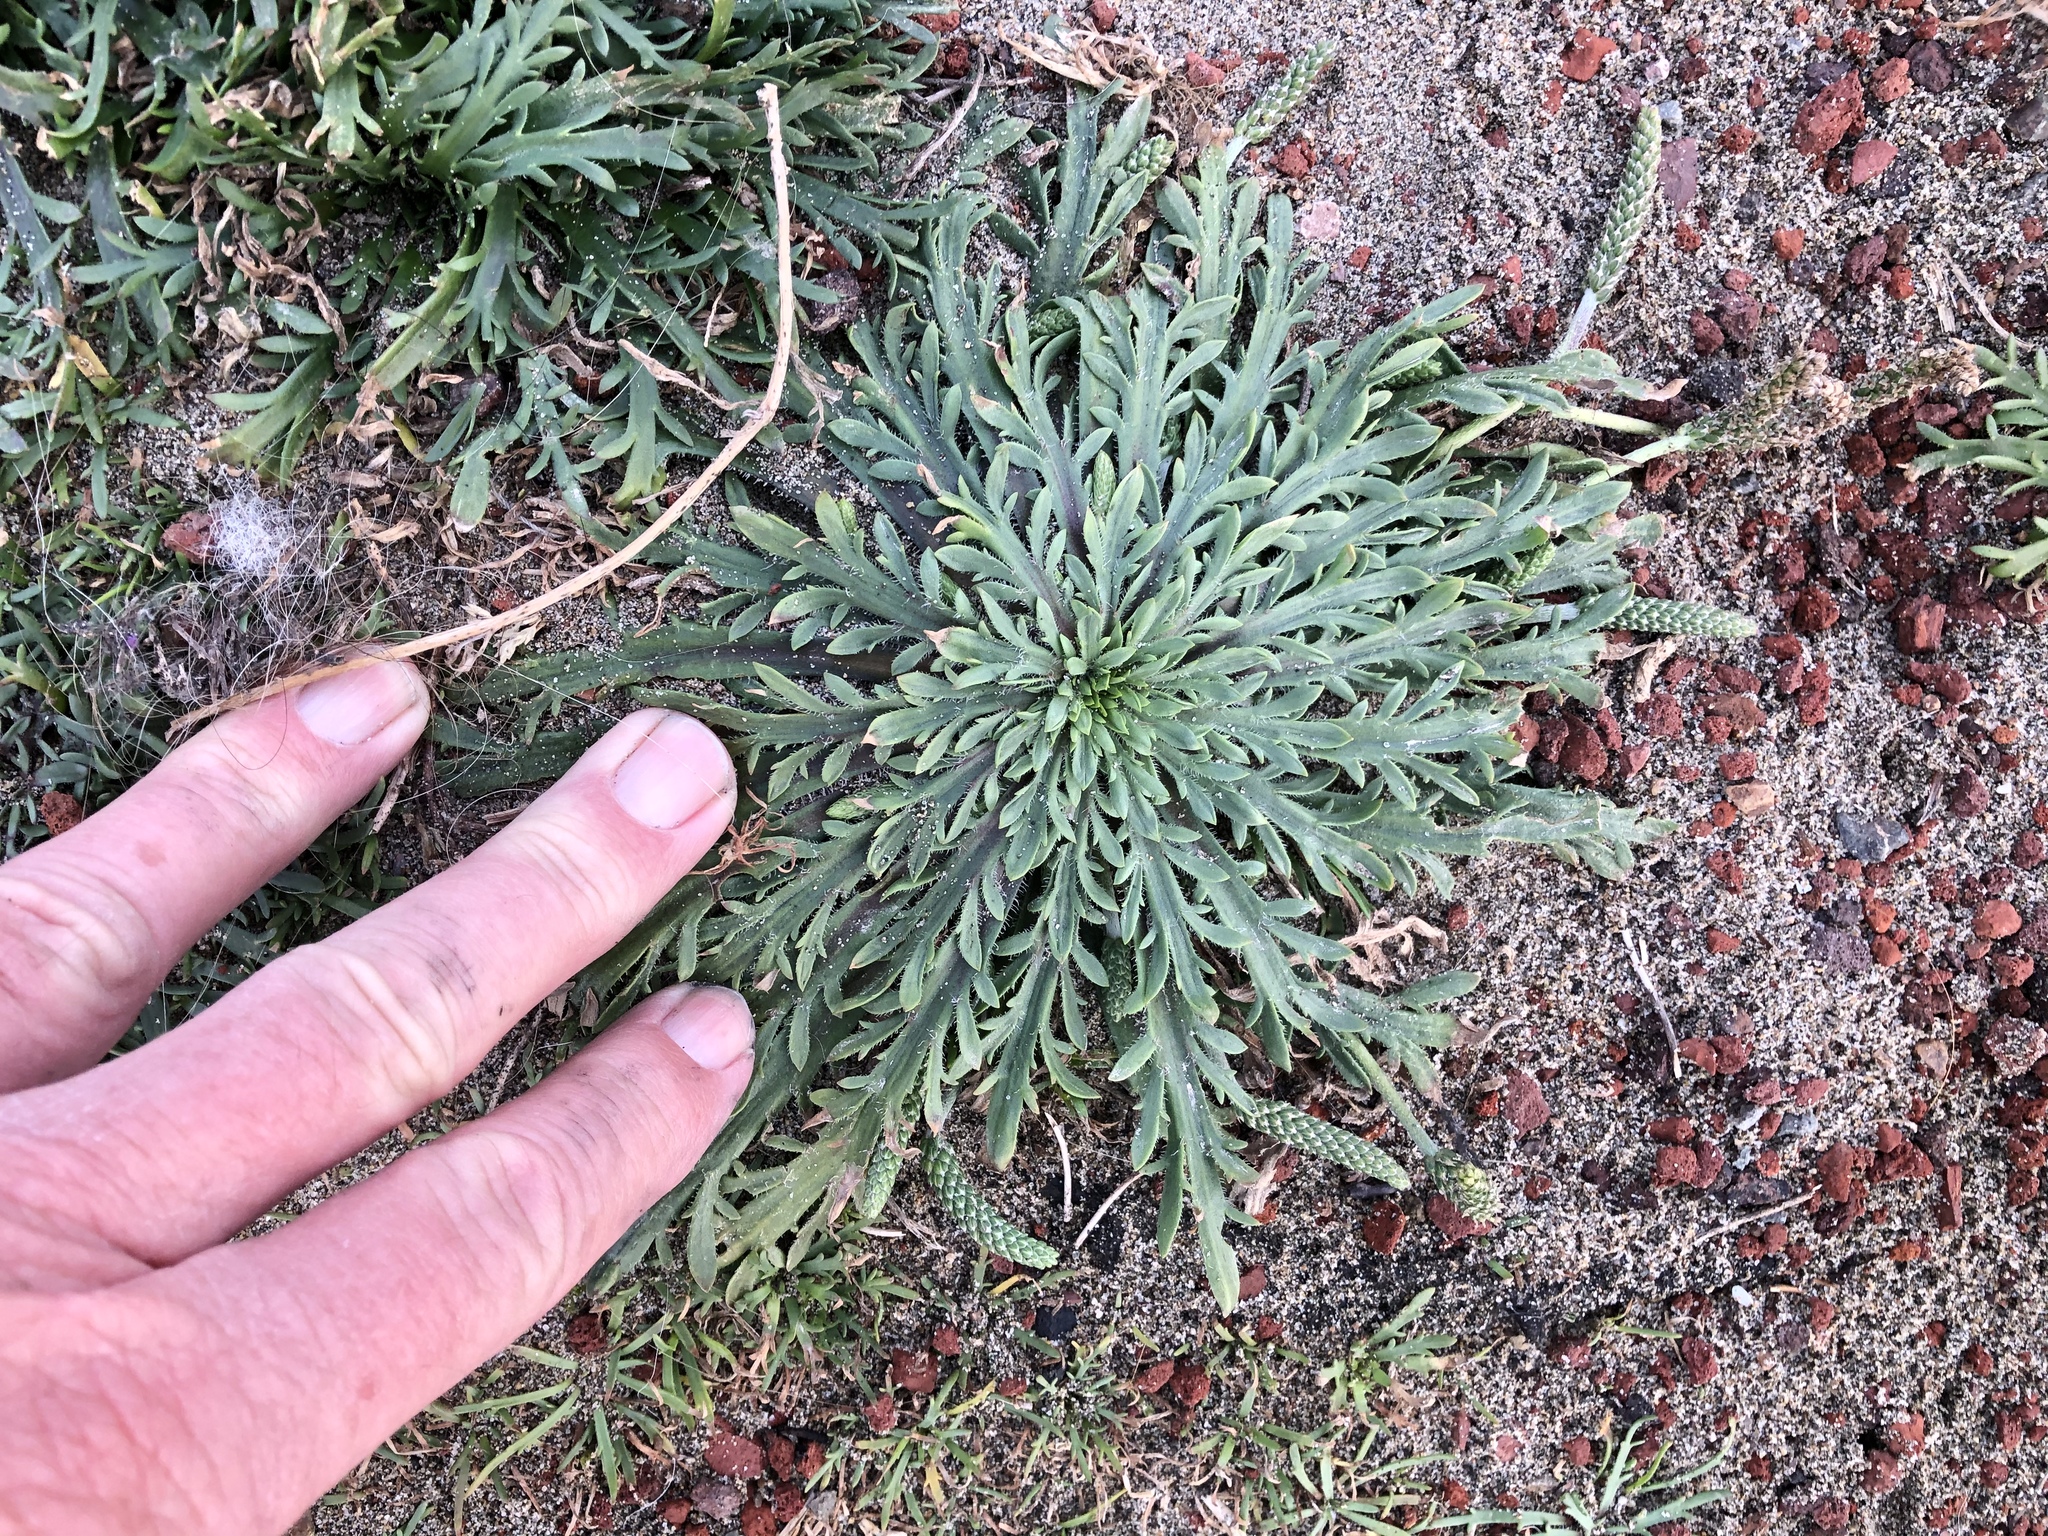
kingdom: Plantae
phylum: Tracheophyta
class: Magnoliopsida
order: Lamiales
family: Plantaginaceae
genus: Plantago
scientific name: Plantago coronopus
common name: Buck's-horn plantain
